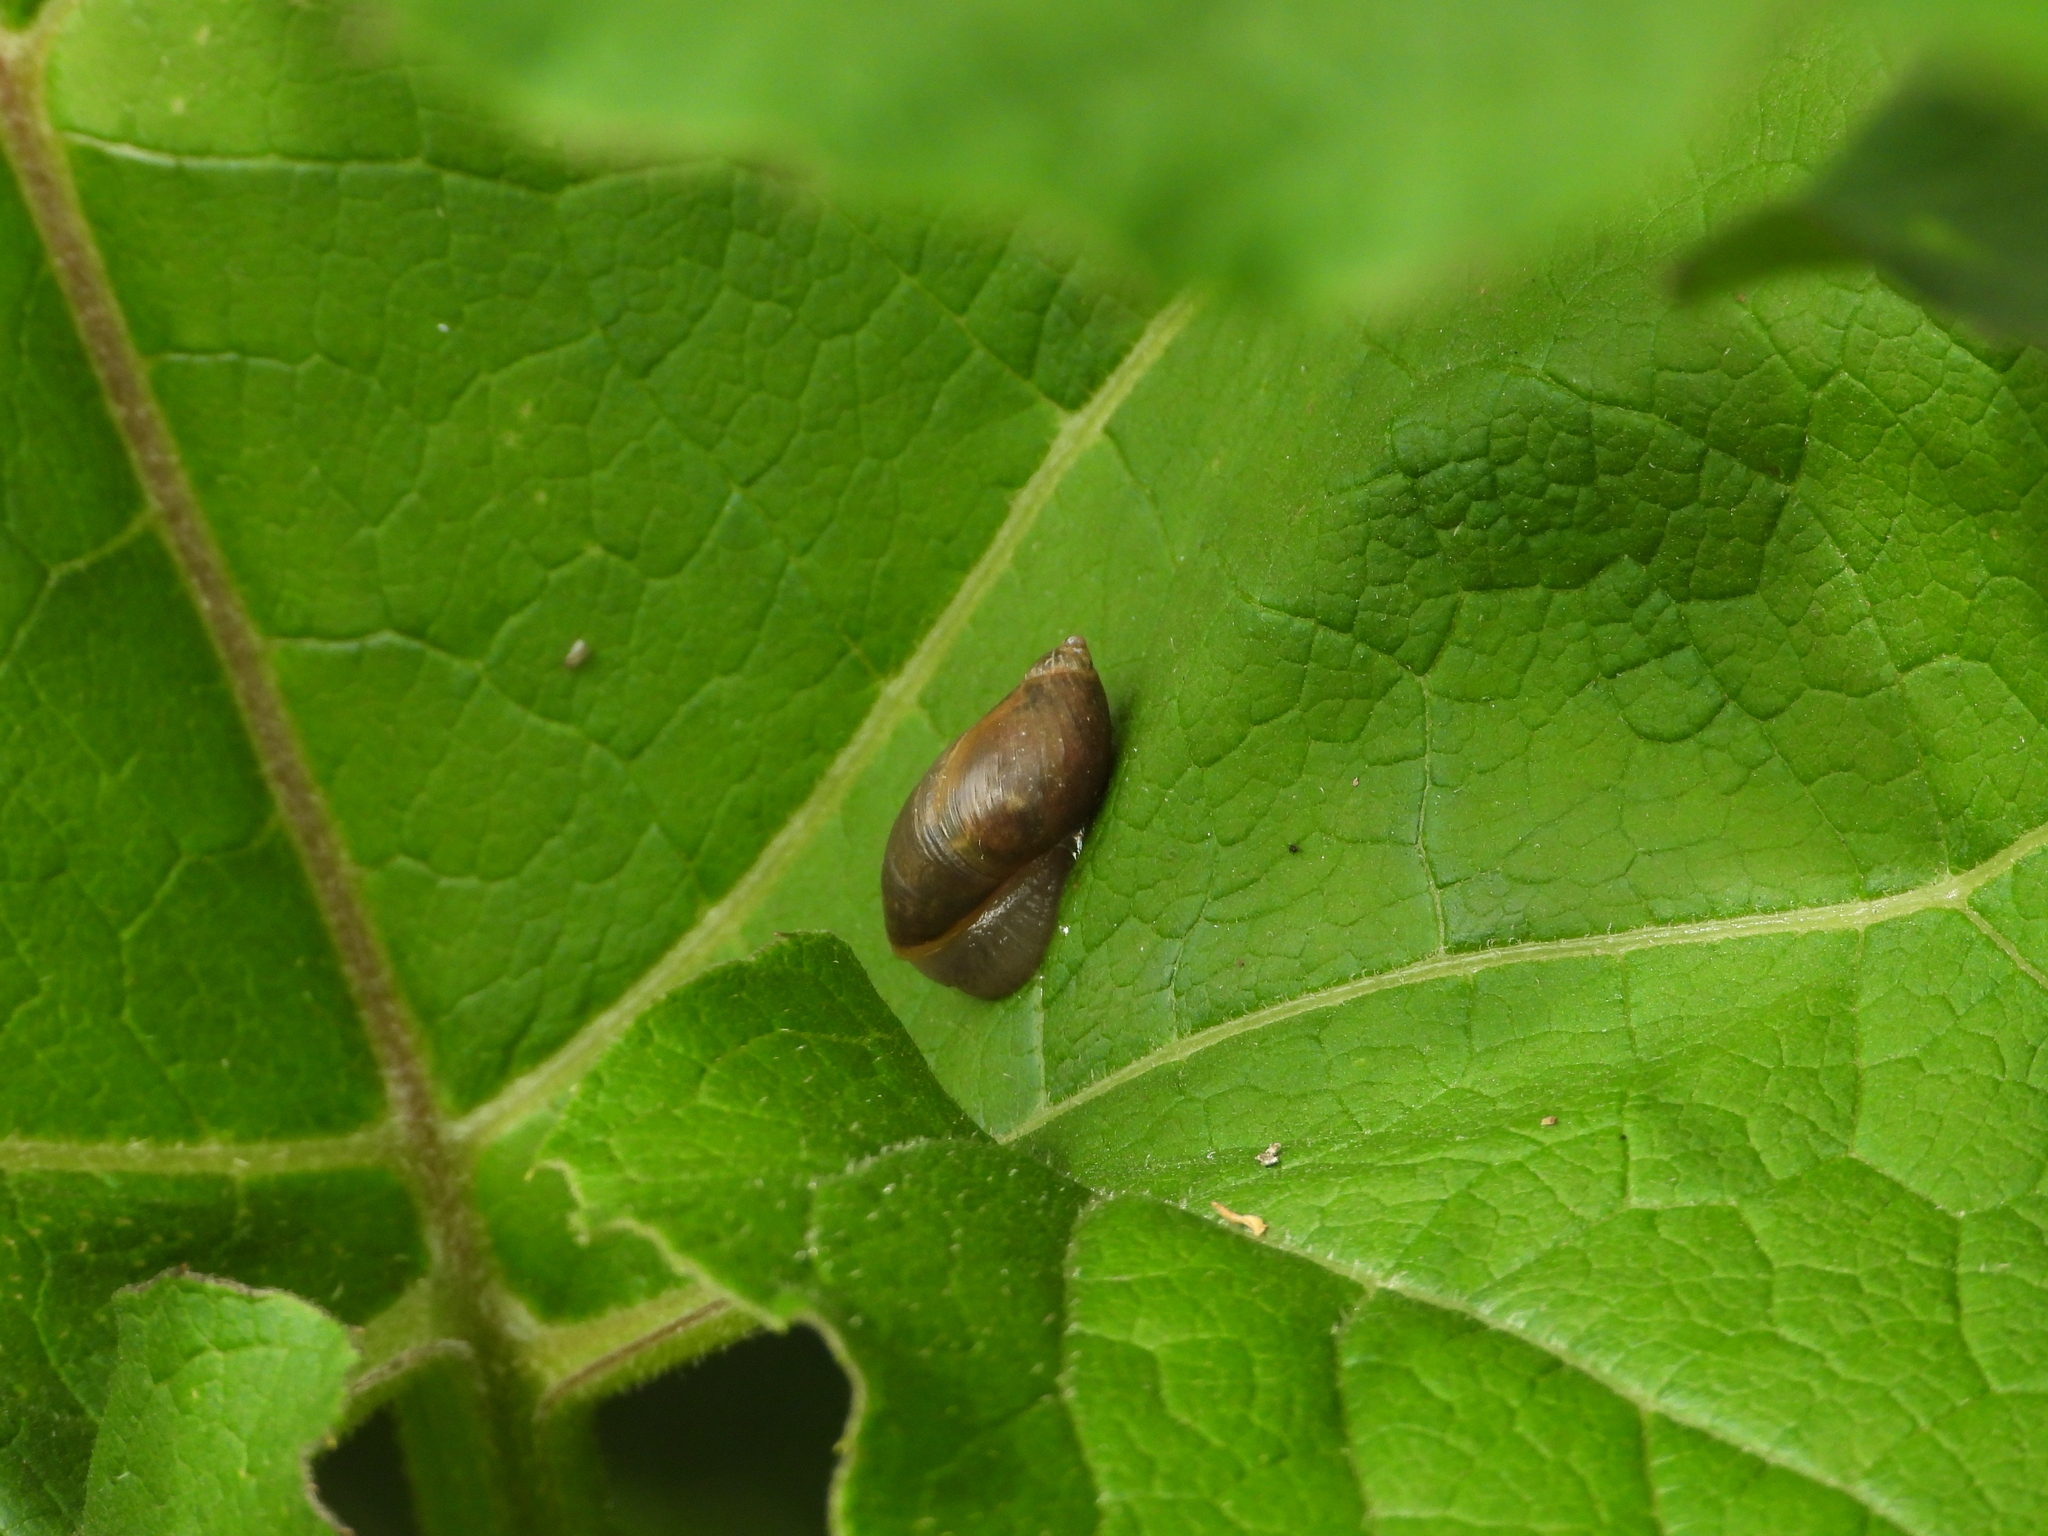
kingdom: Animalia
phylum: Mollusca
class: Gastropoda
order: Stylommatophora
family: Succineidae
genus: Succinea
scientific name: Succinea putris
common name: European ambersnail
